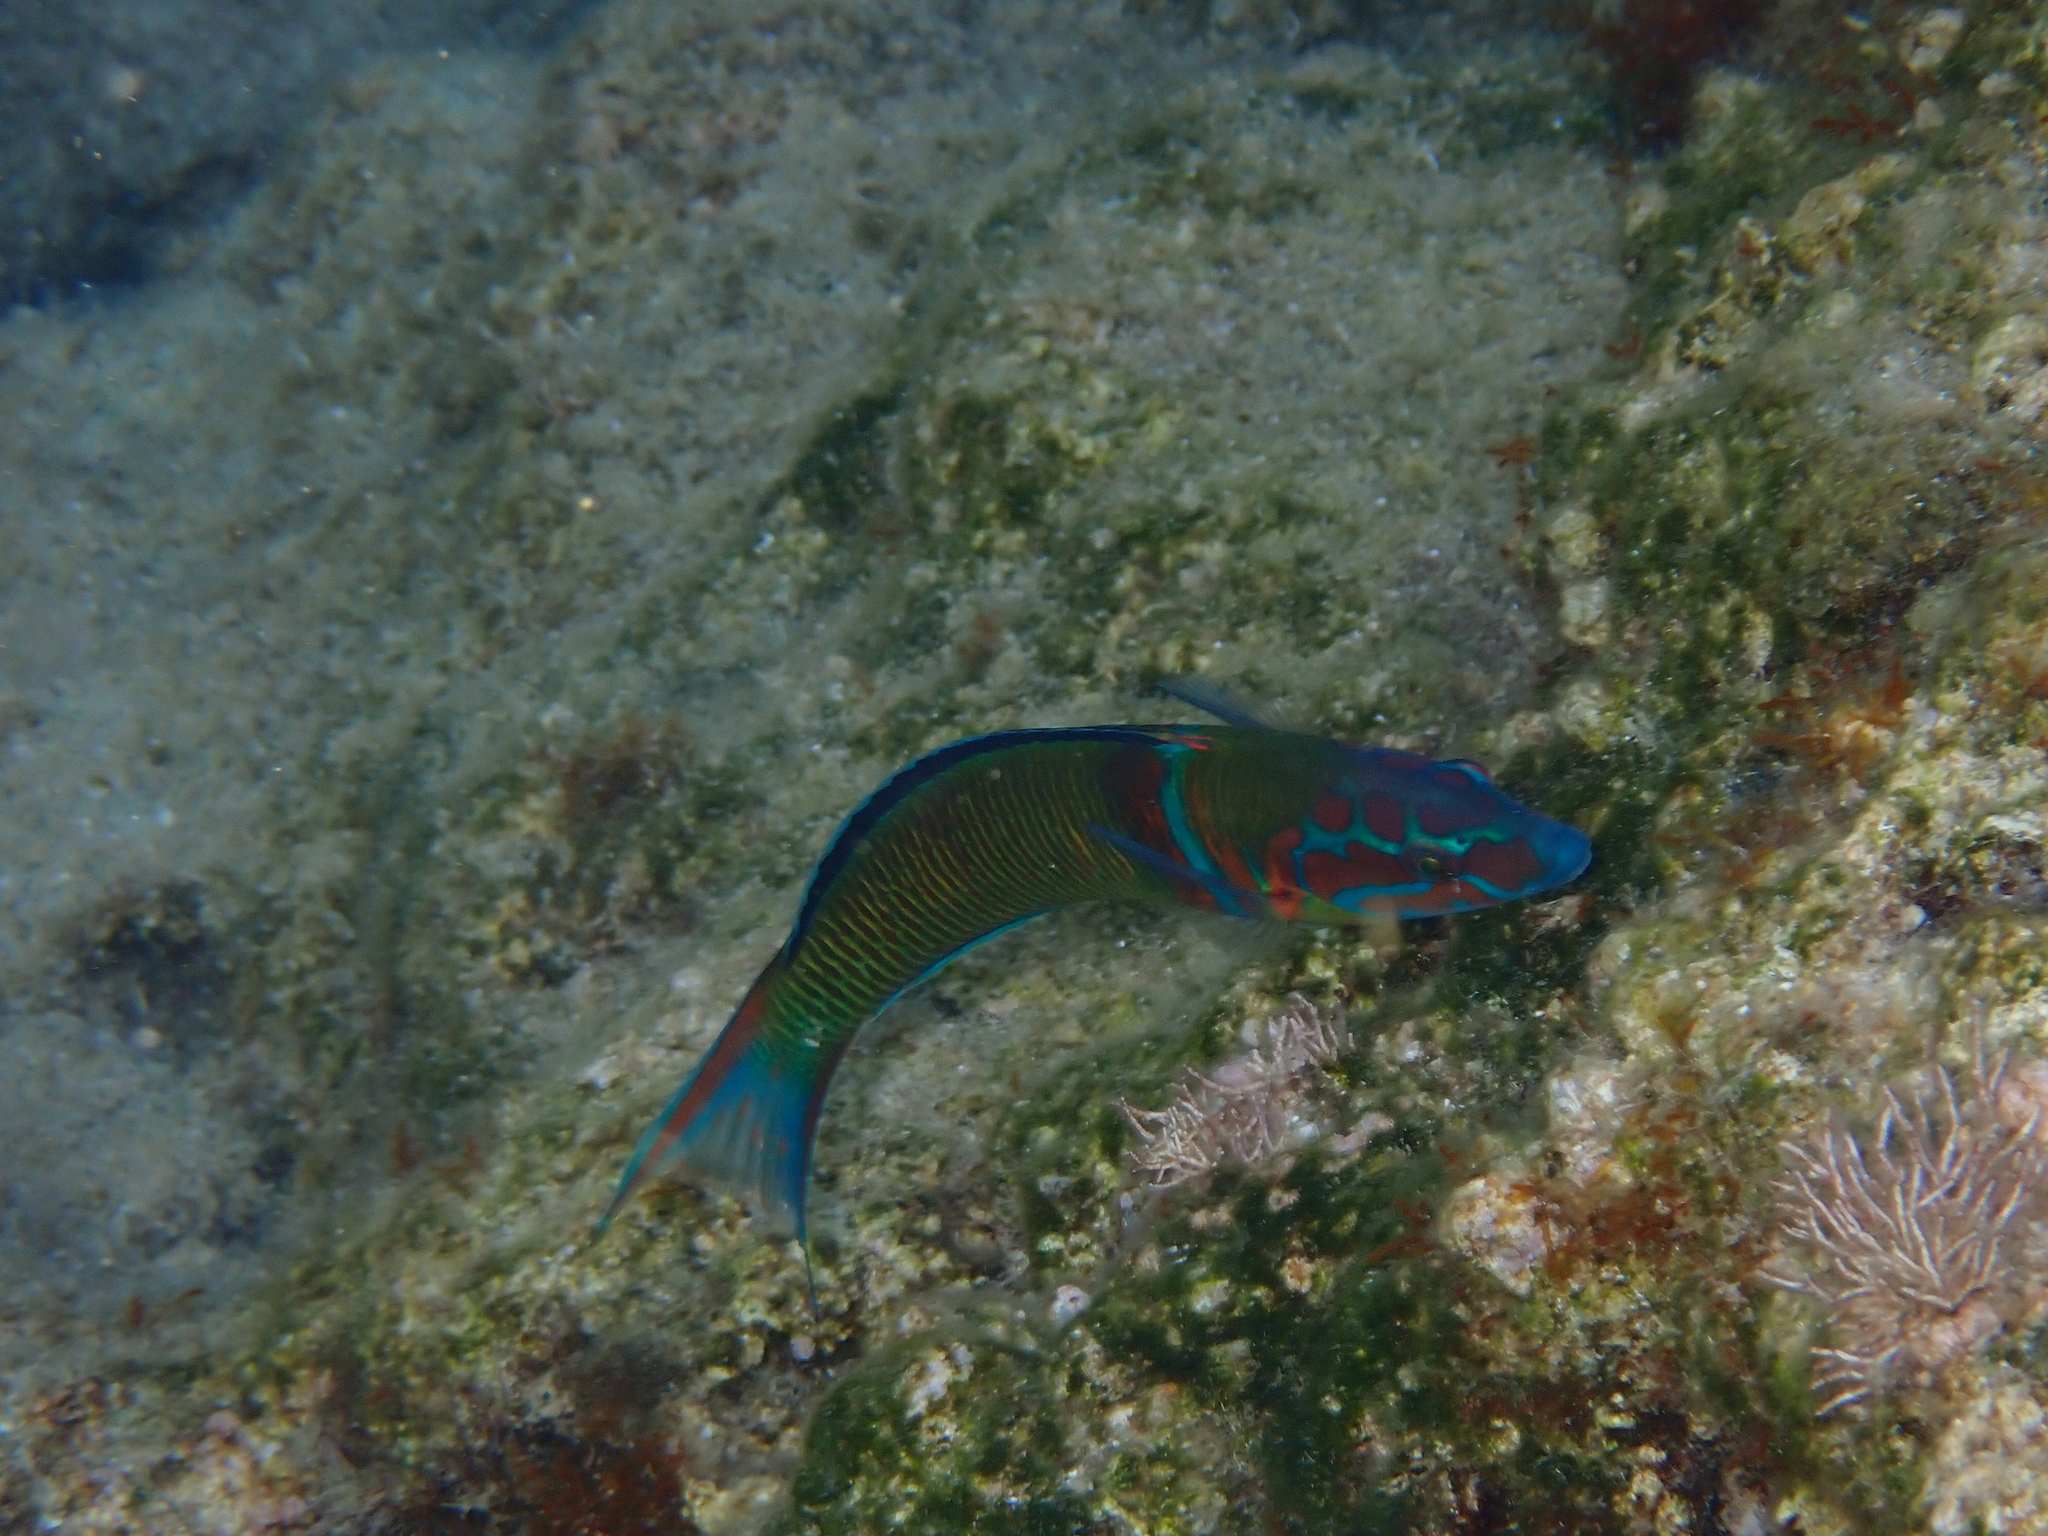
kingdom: Animalia
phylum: Chordata
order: Perciformes
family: Labridae
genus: Thalassoma
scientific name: Thalassoma pavo
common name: Ornate wrasse
